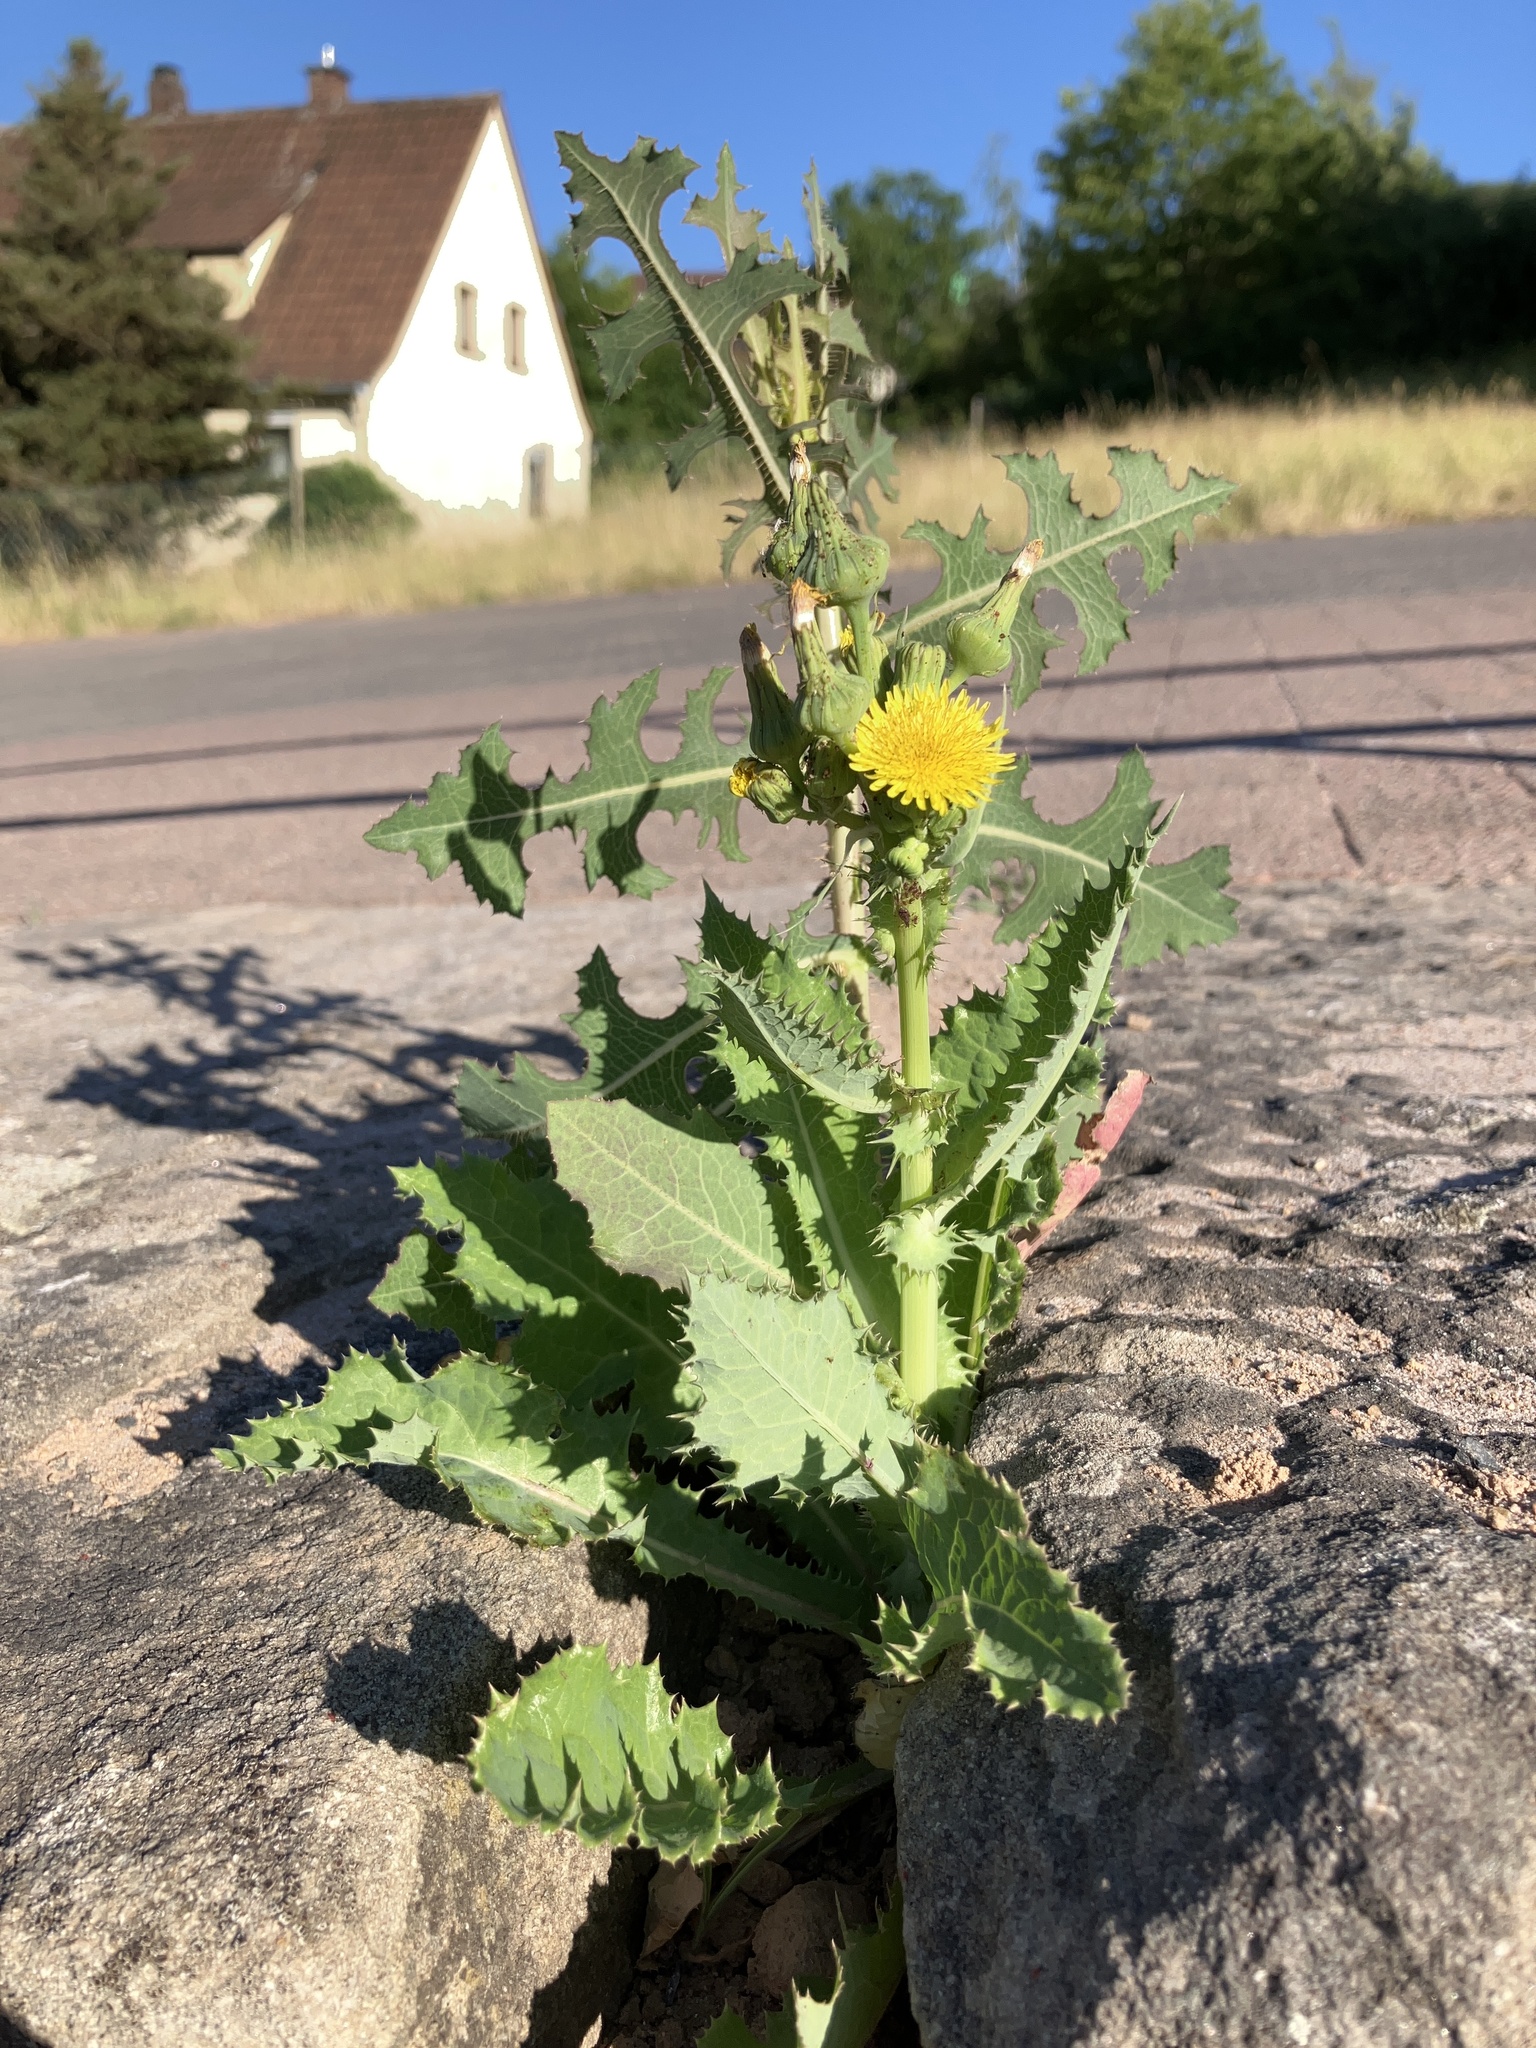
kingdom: Plantae
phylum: Tracheophyta
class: Magnoliopsida
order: Asterales
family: Asteraceae
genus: Sonchus
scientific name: Sonchus asper
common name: Prickly sow-thistle
